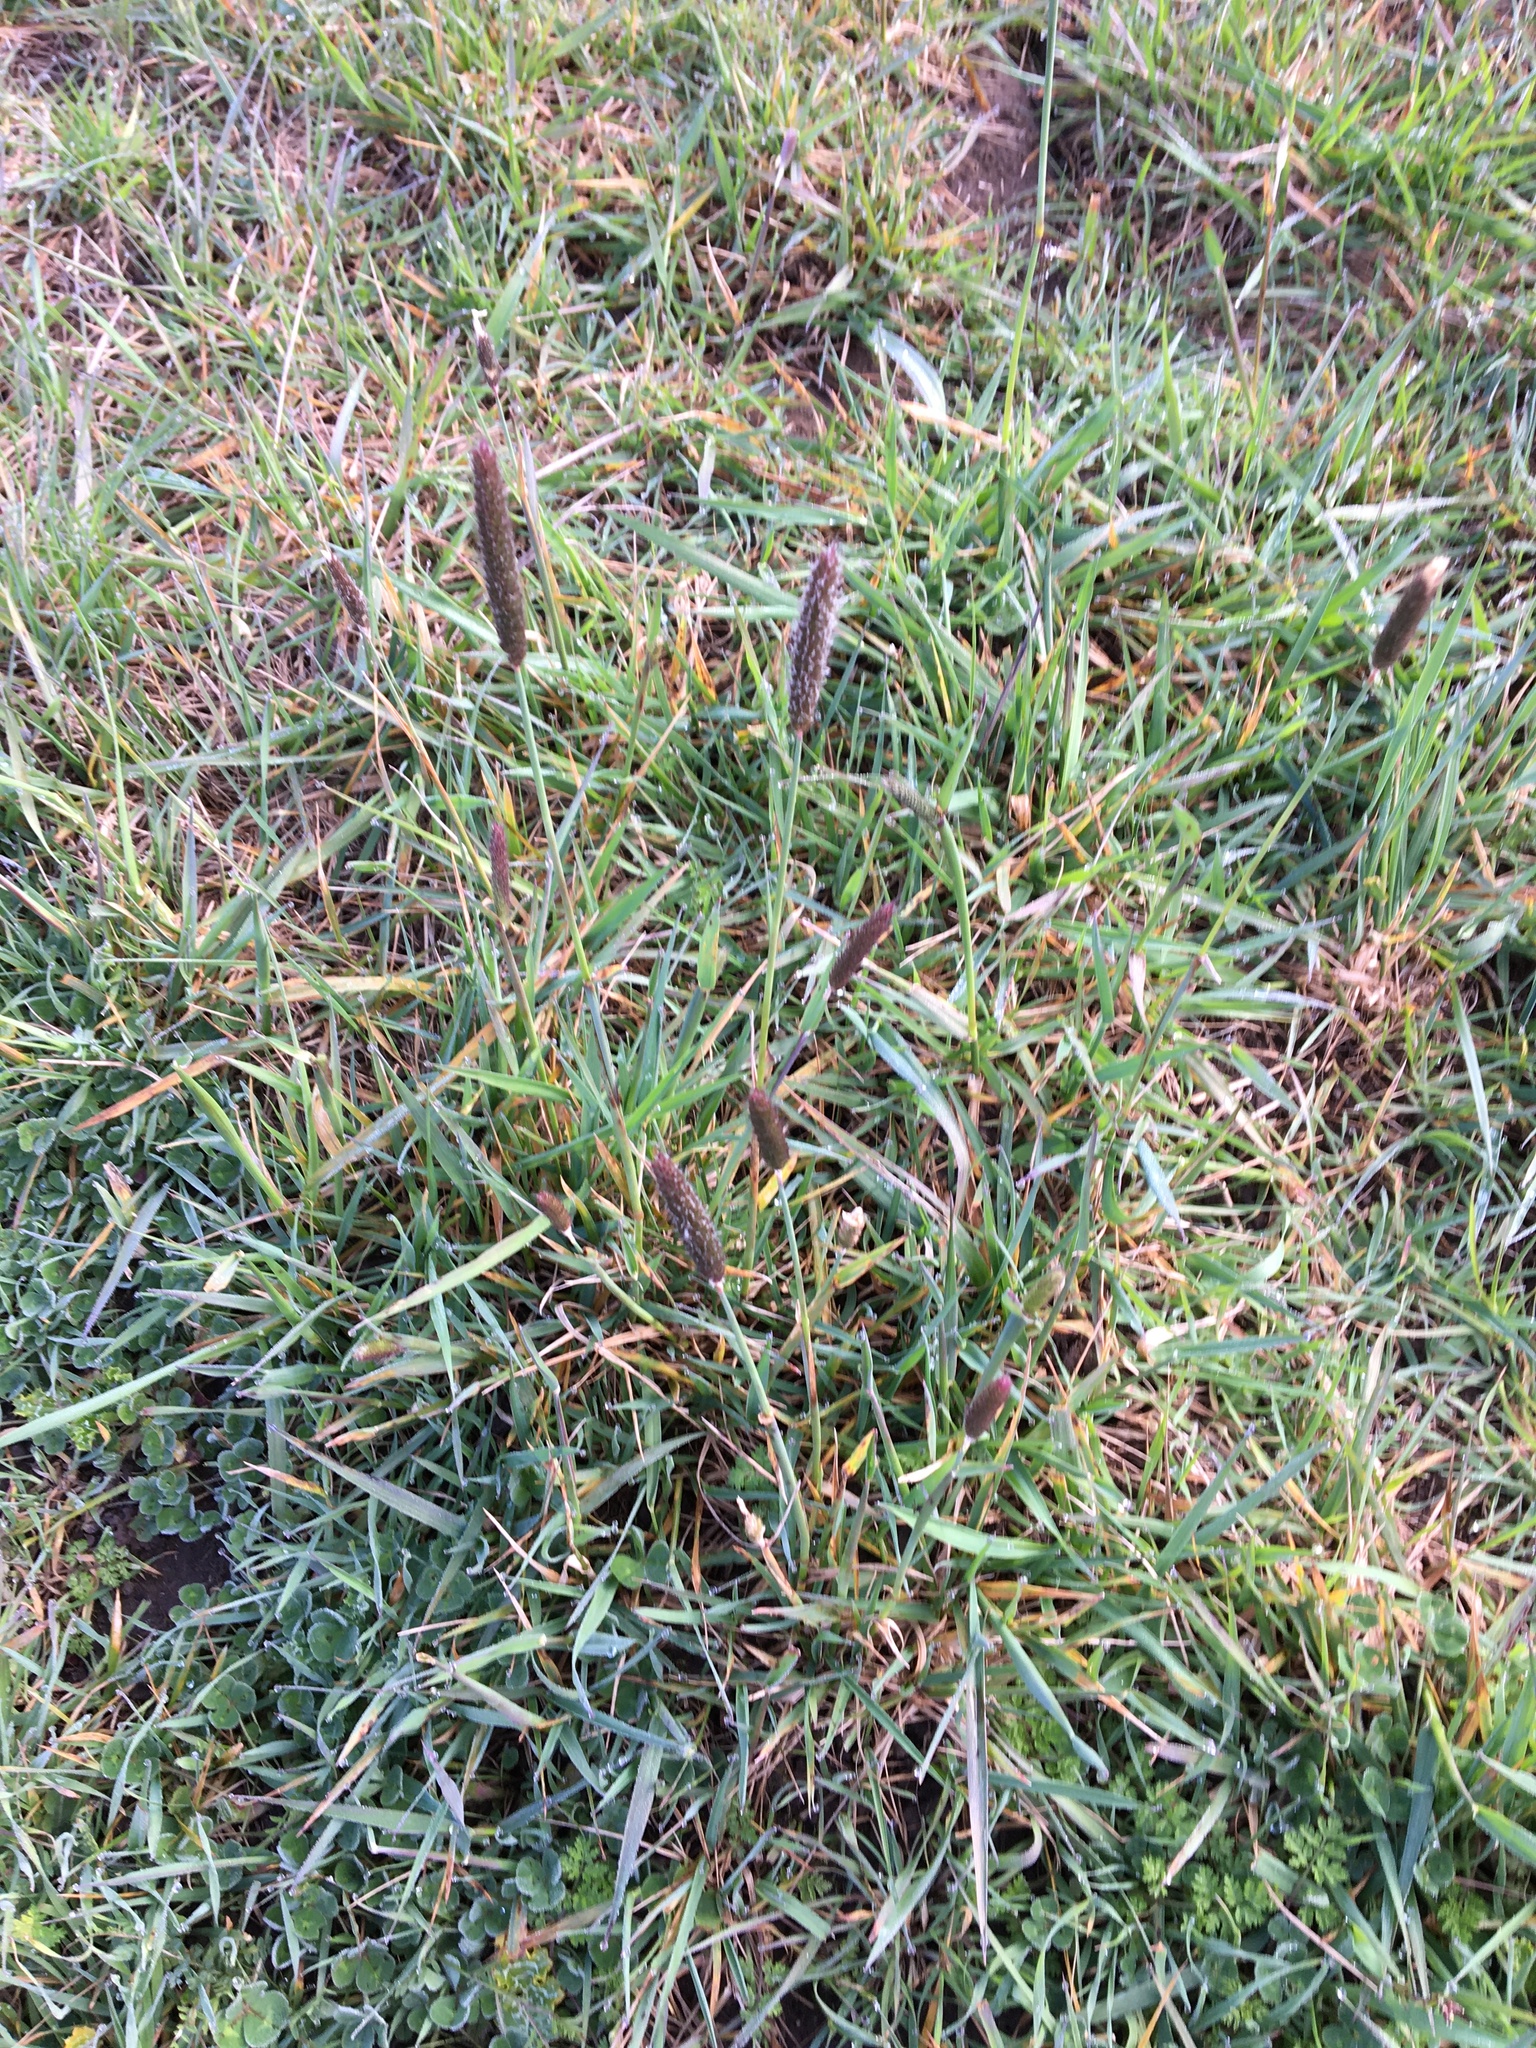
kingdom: Plantae
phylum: Tracheophyta
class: Liliopsida
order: Poales
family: Poaceae
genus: Alopecurus
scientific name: Alopecurus pratensis
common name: Meadow foxtail
